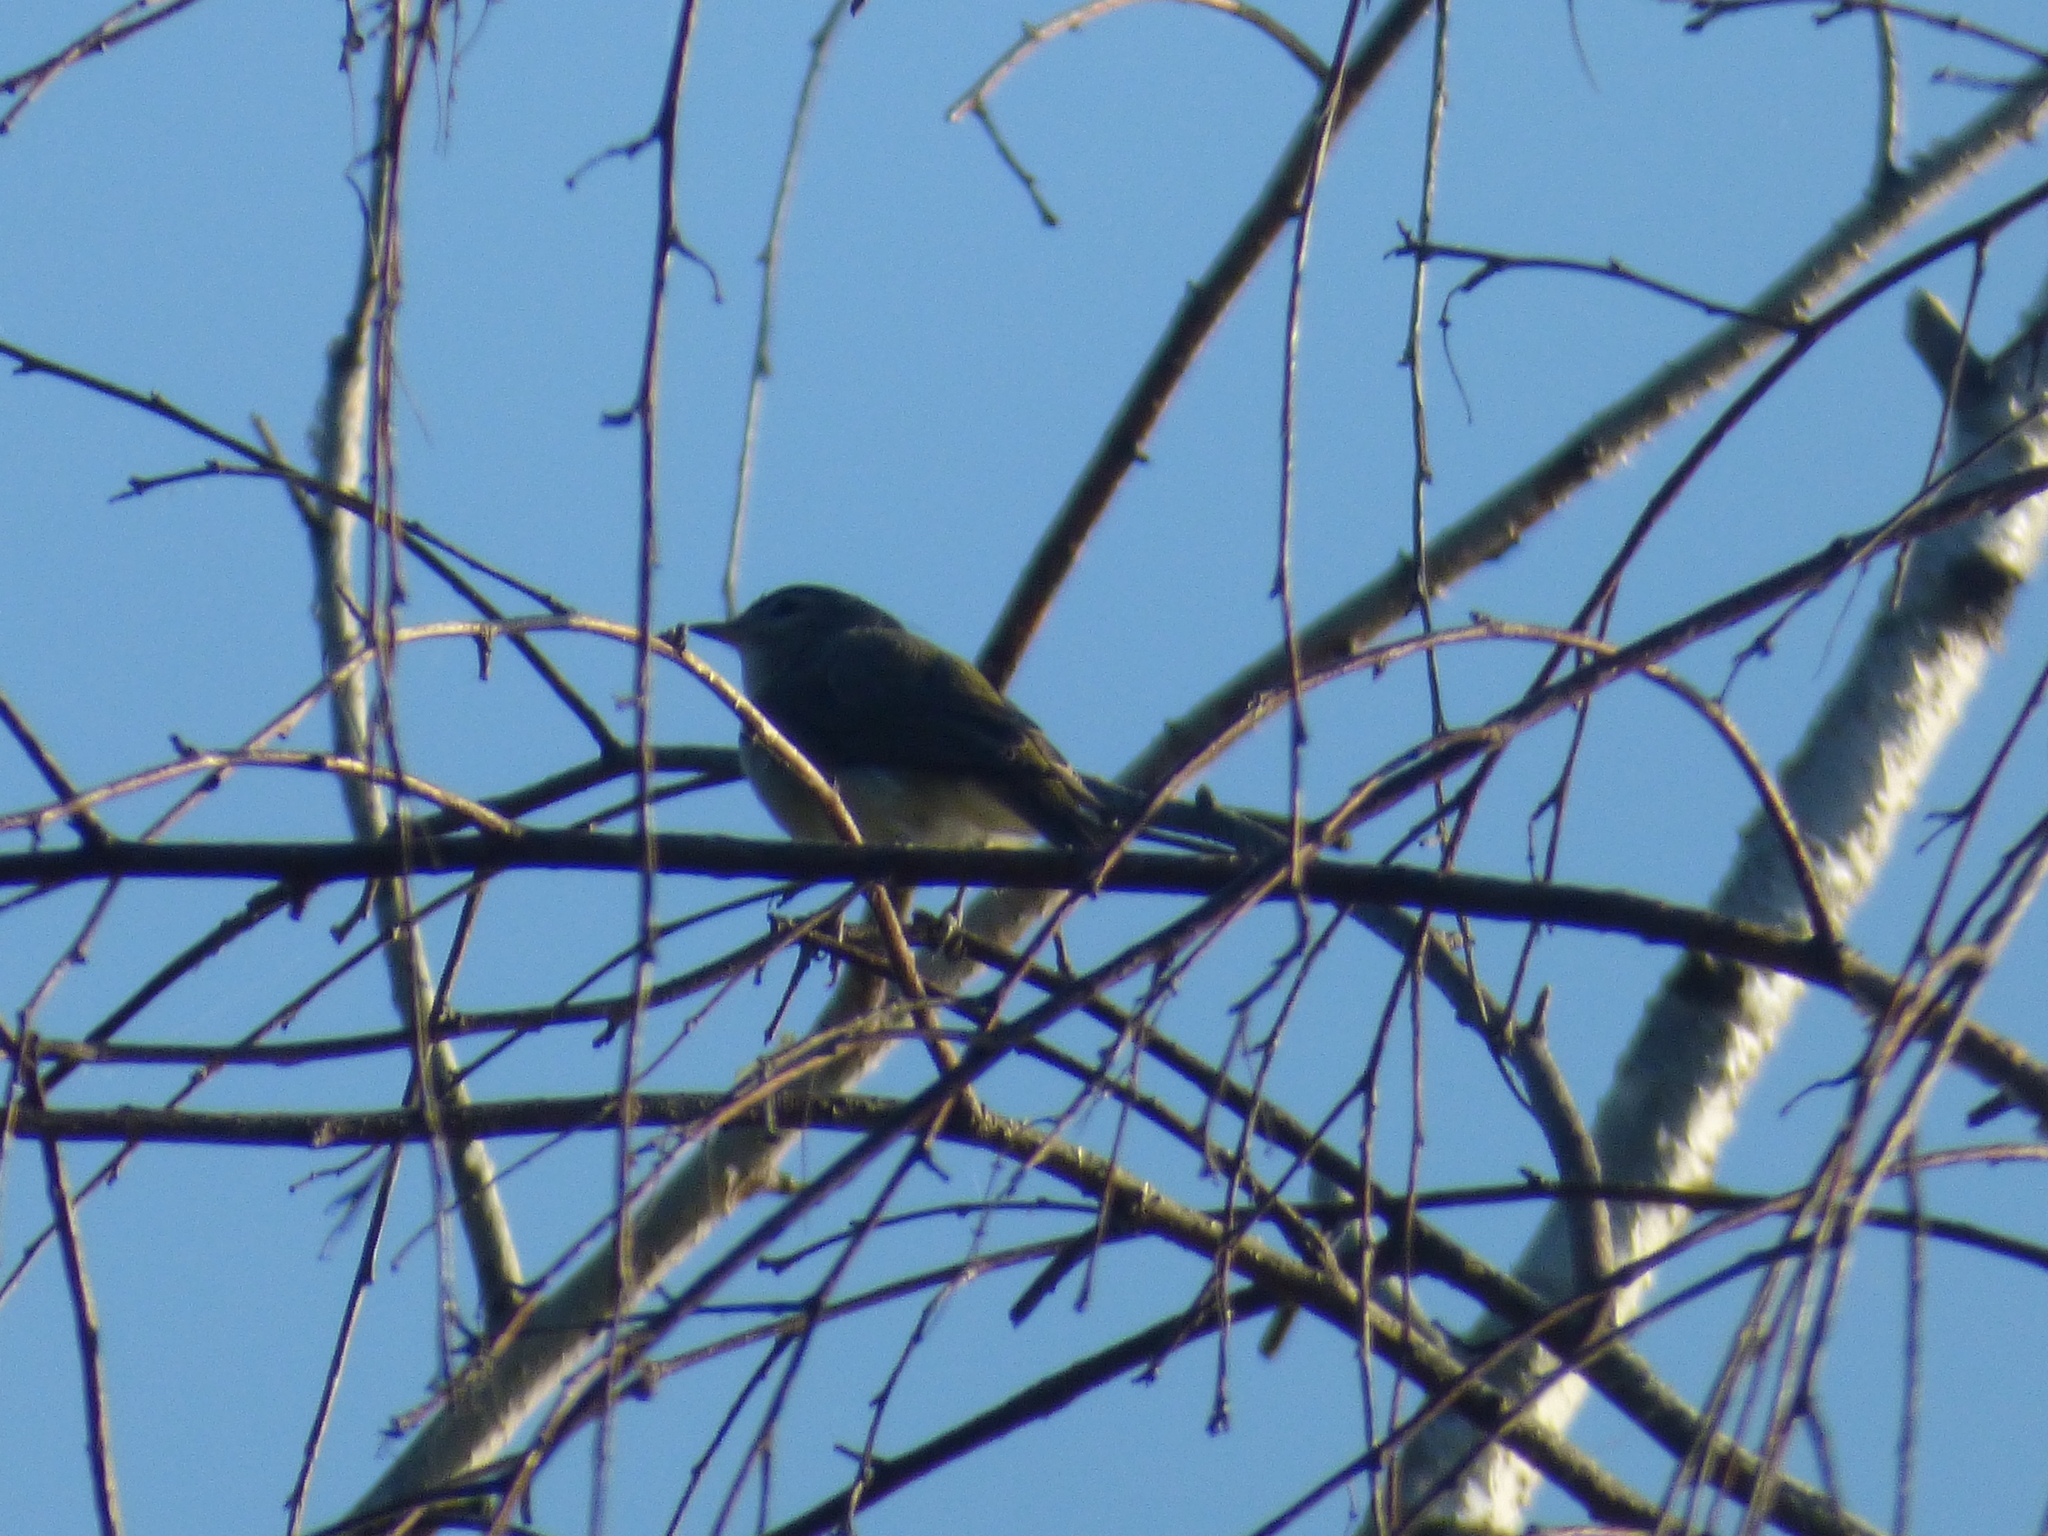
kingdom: Animalia
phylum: Chordata
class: Aves
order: Passeriformes
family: Vireonidae
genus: Vireo
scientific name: Vireo gilvus
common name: Warbling vireo
